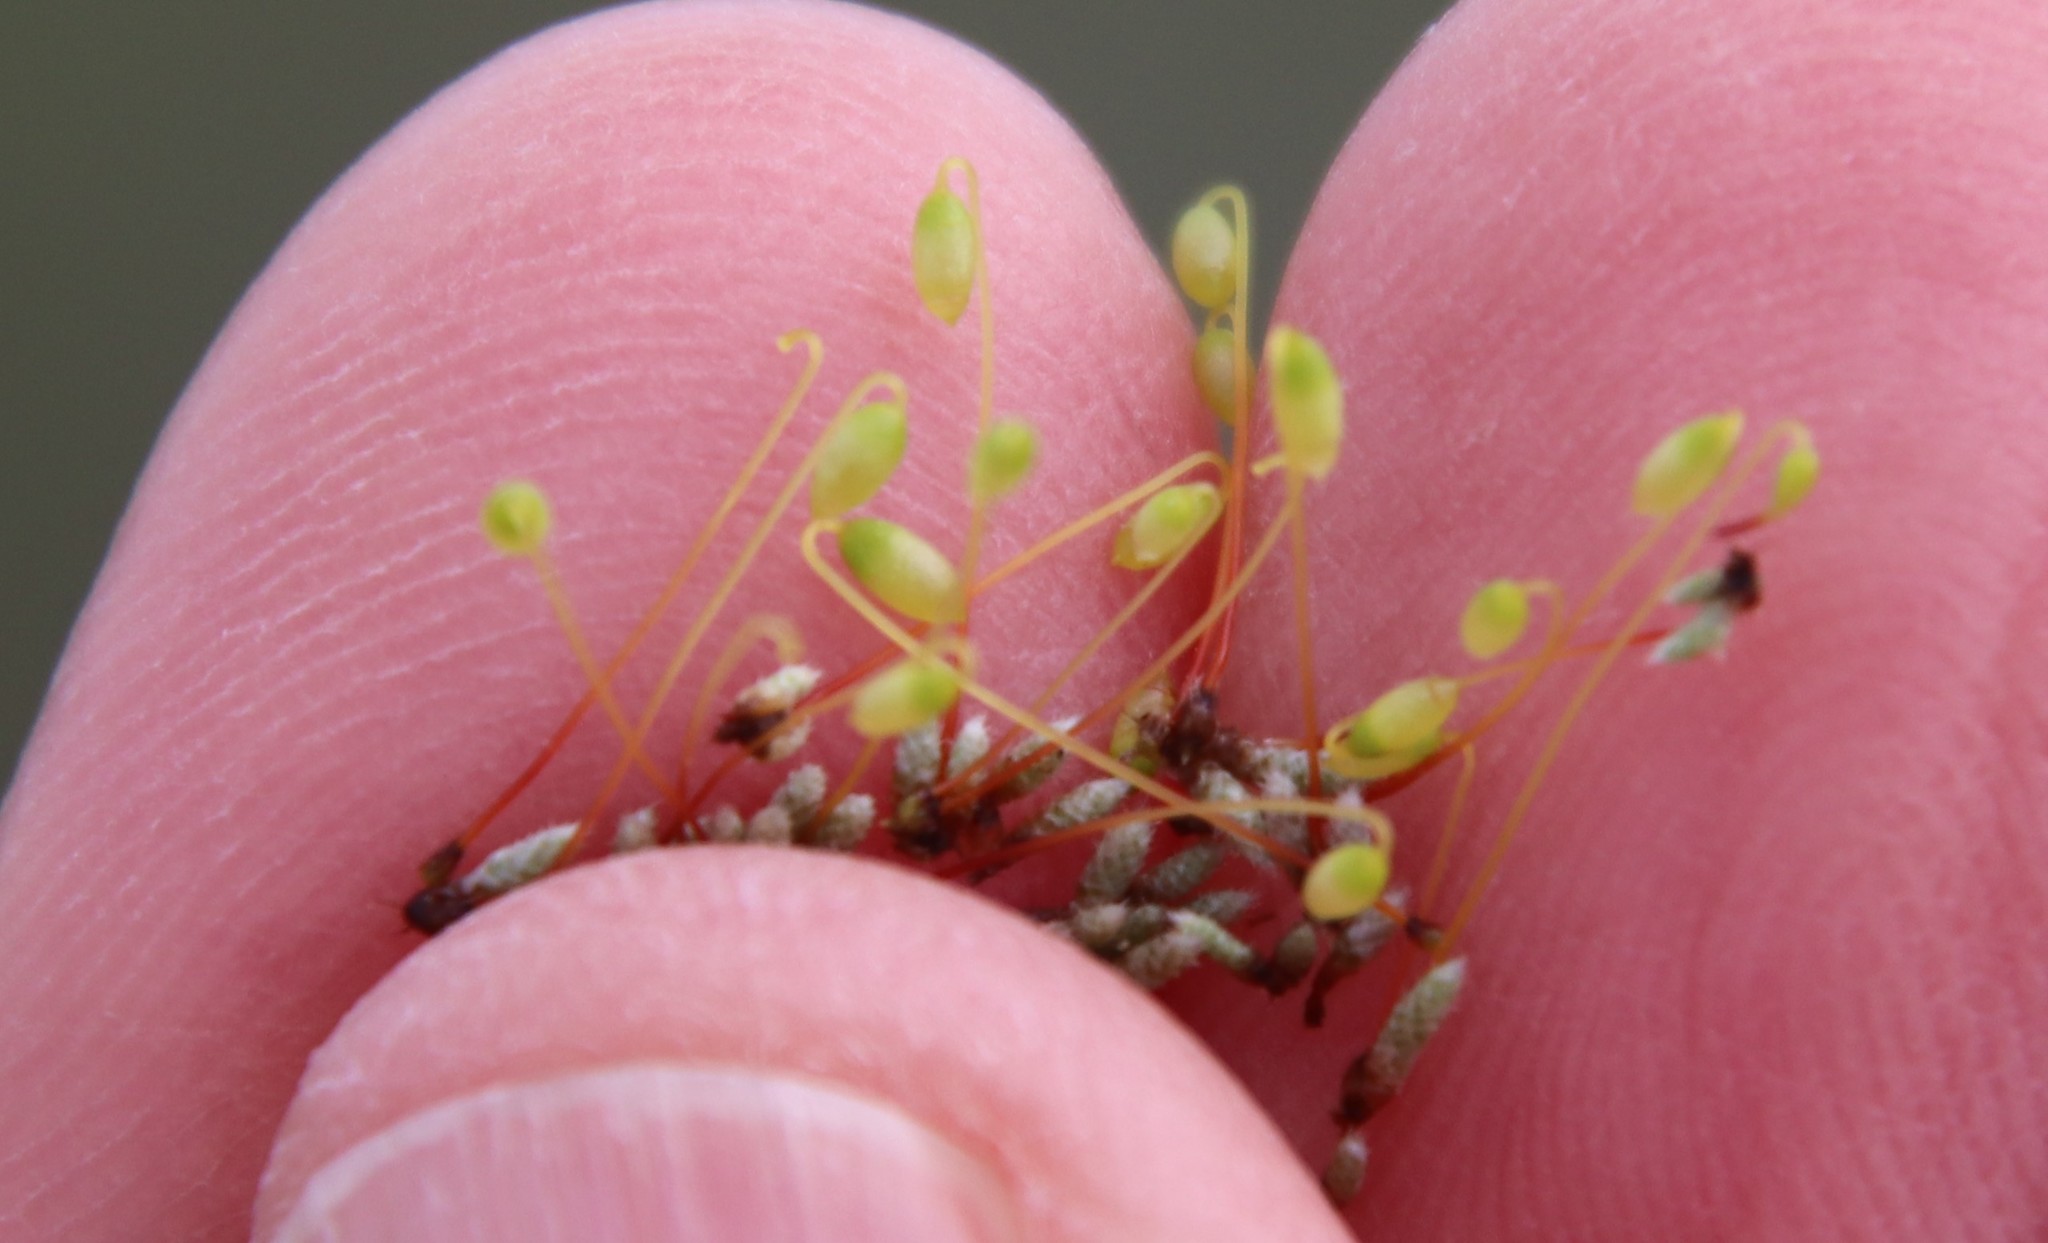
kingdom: Plantae
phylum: Bryophyta
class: Bryopsida
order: Bryales
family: Bryaceae
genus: Bryum
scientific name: Bryum argenteum
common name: Silver-moss
